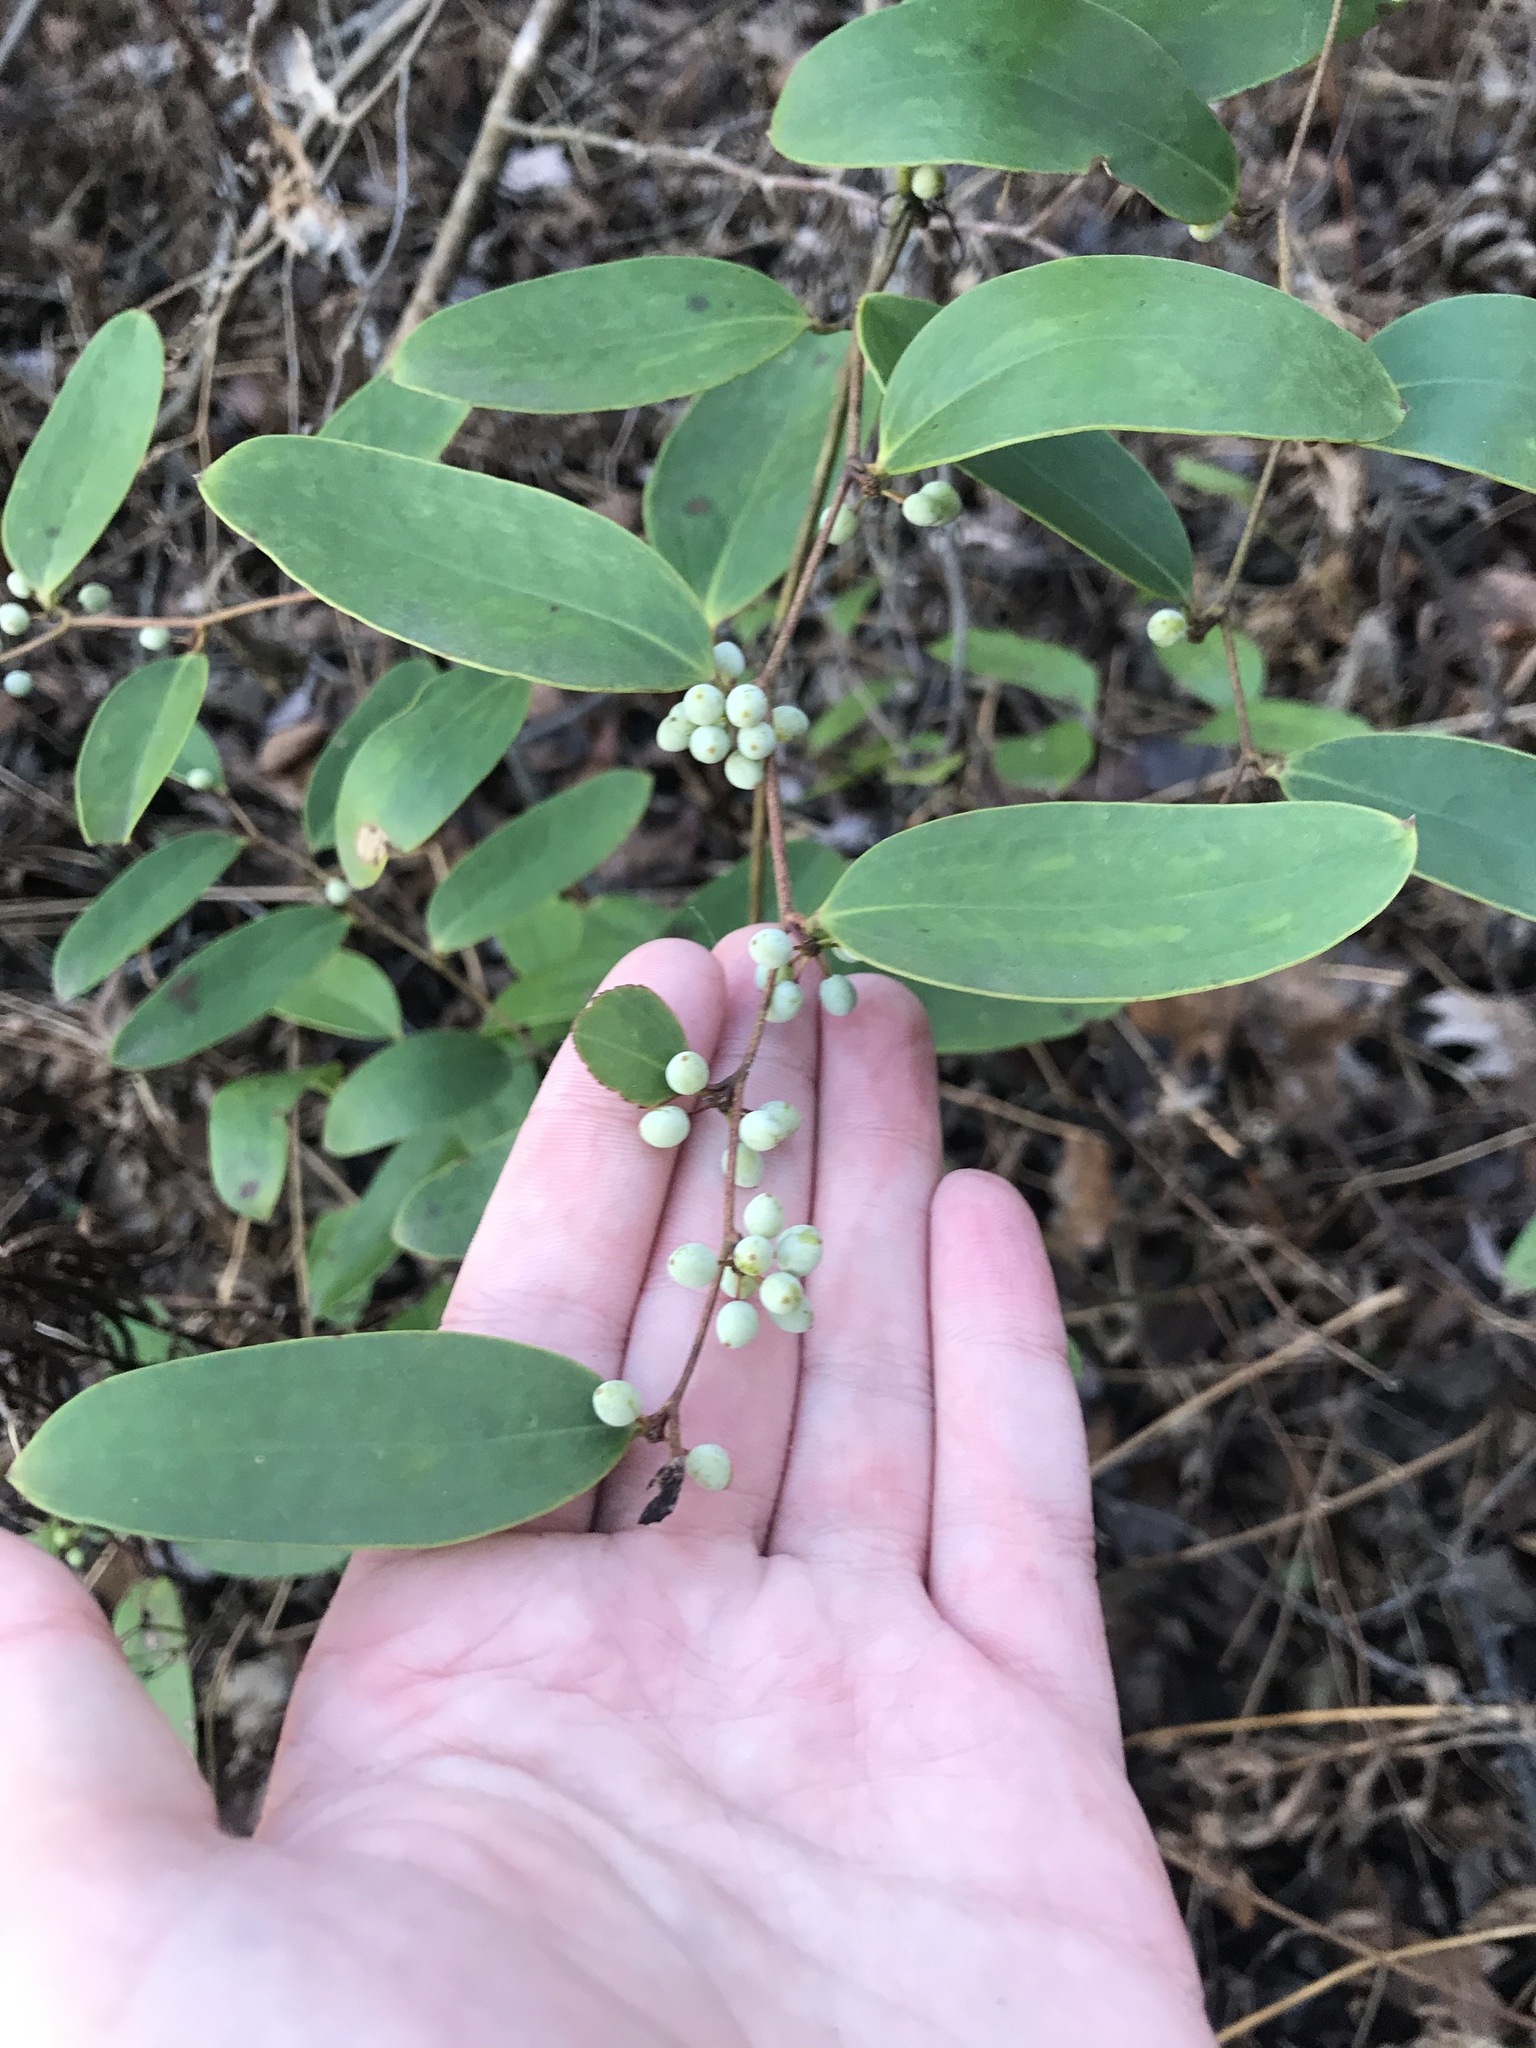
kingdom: Plantae
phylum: Tracheophyta
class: Liliopsida
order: Liliales
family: Smilacaceae
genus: Smilax
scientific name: Smilax laurifolia
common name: Bamboovine
